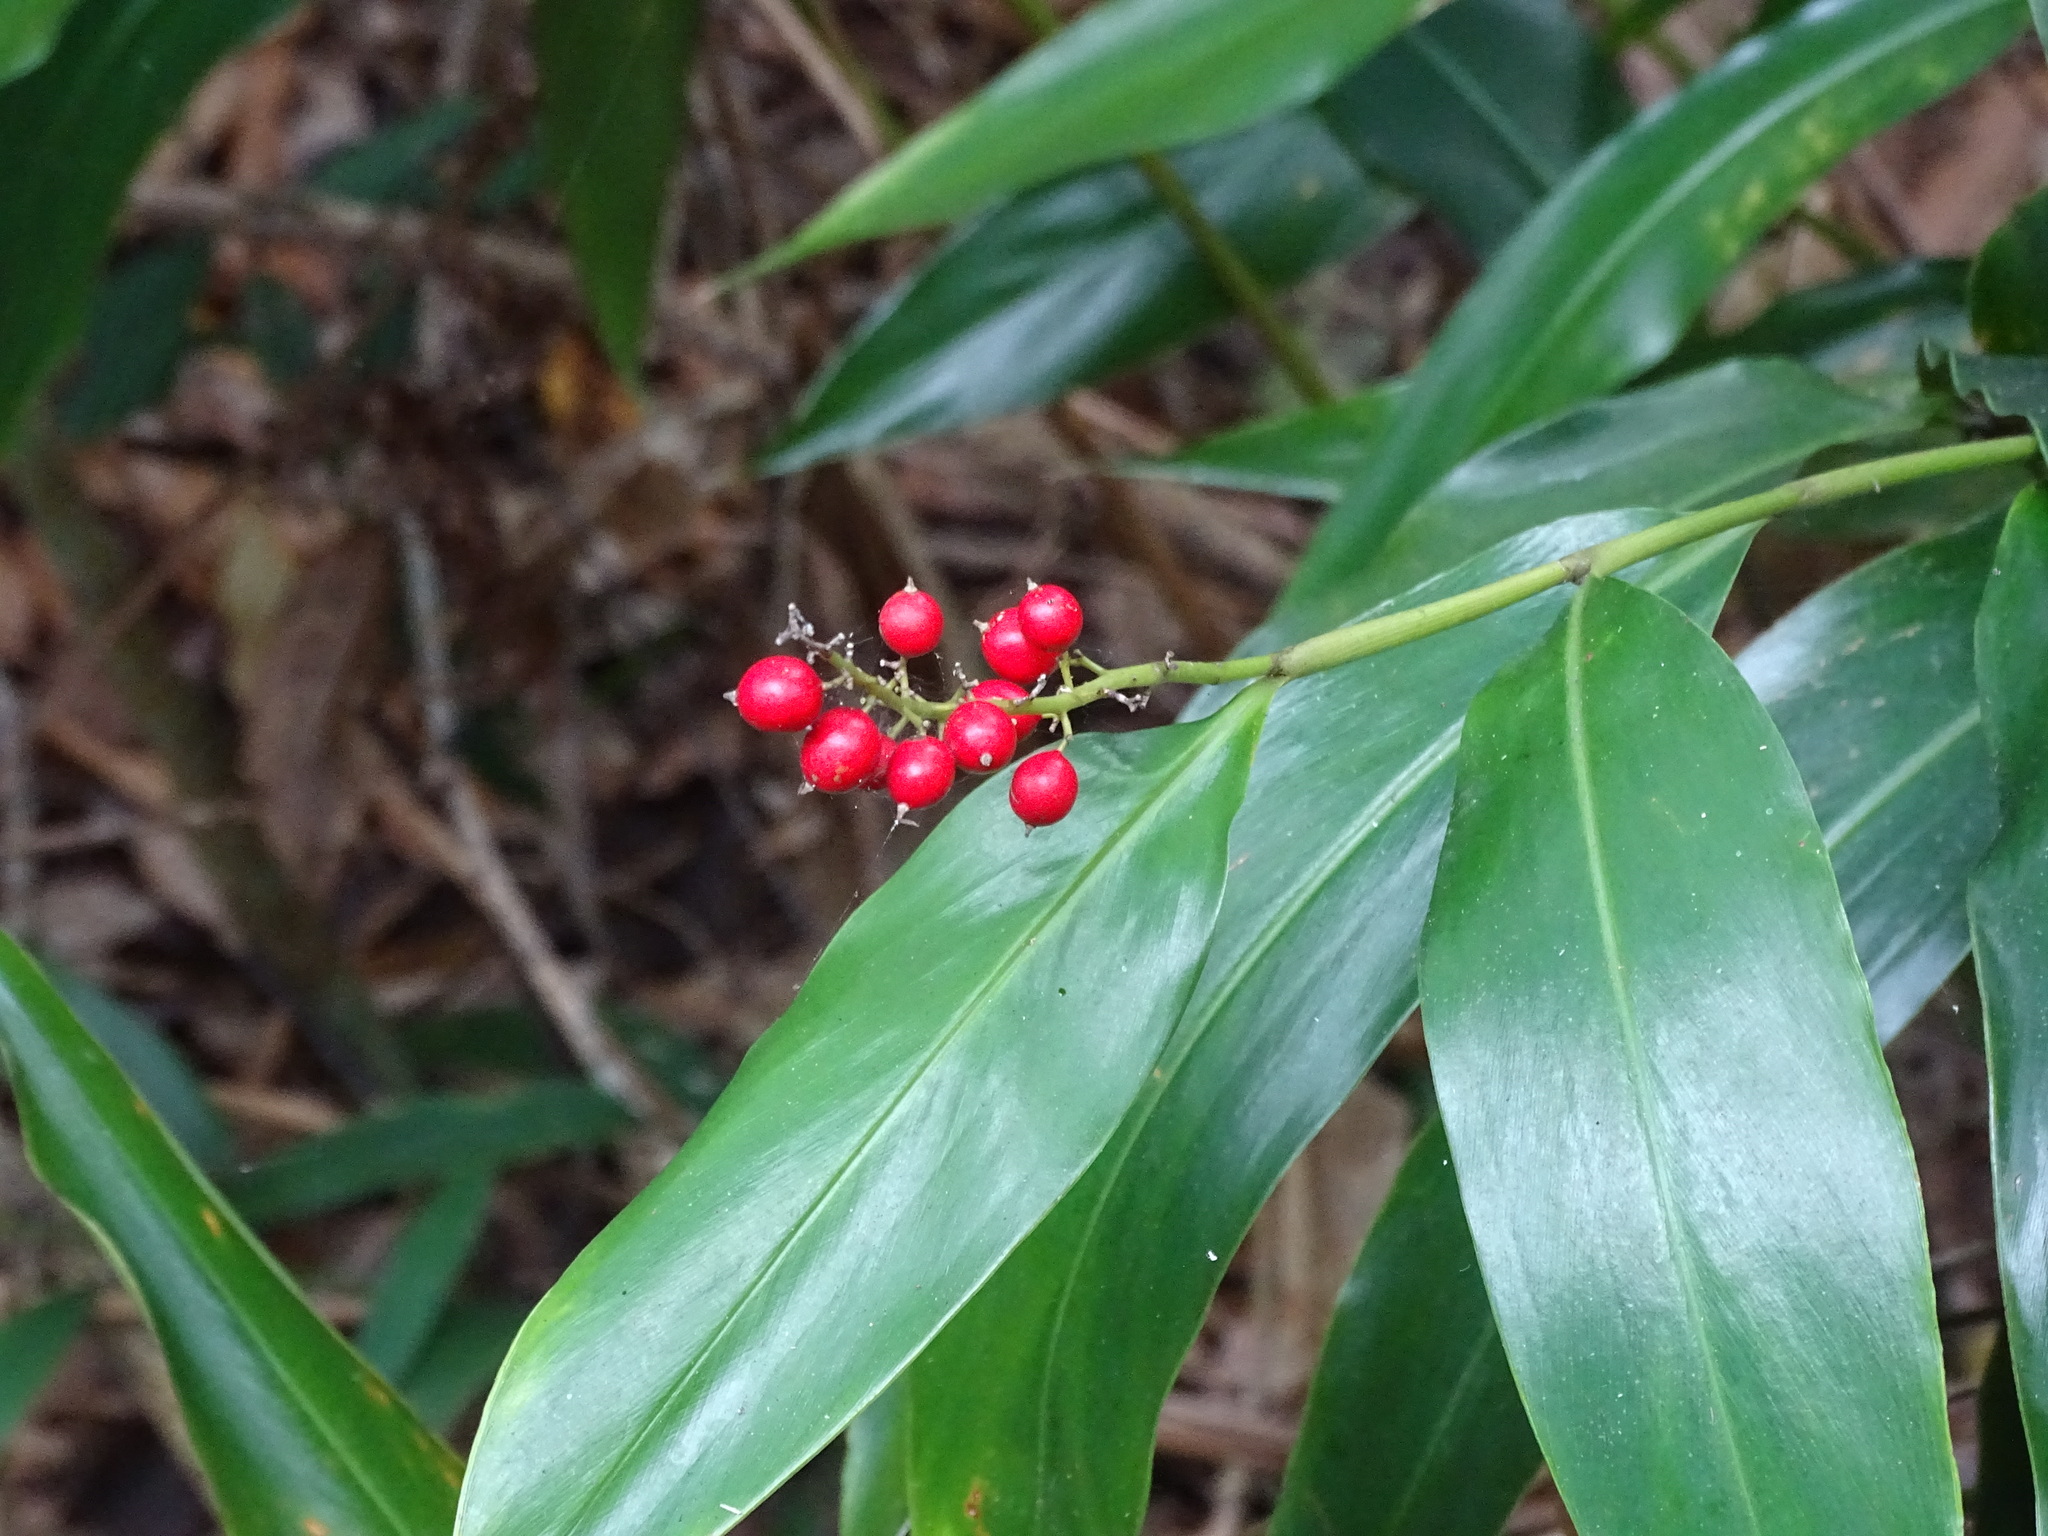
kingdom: Plantae
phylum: Tracheophyta
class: Liliopsida
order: Zingiberales
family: Zingiberaceae
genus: Alpinia
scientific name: Alpinia intermedia
